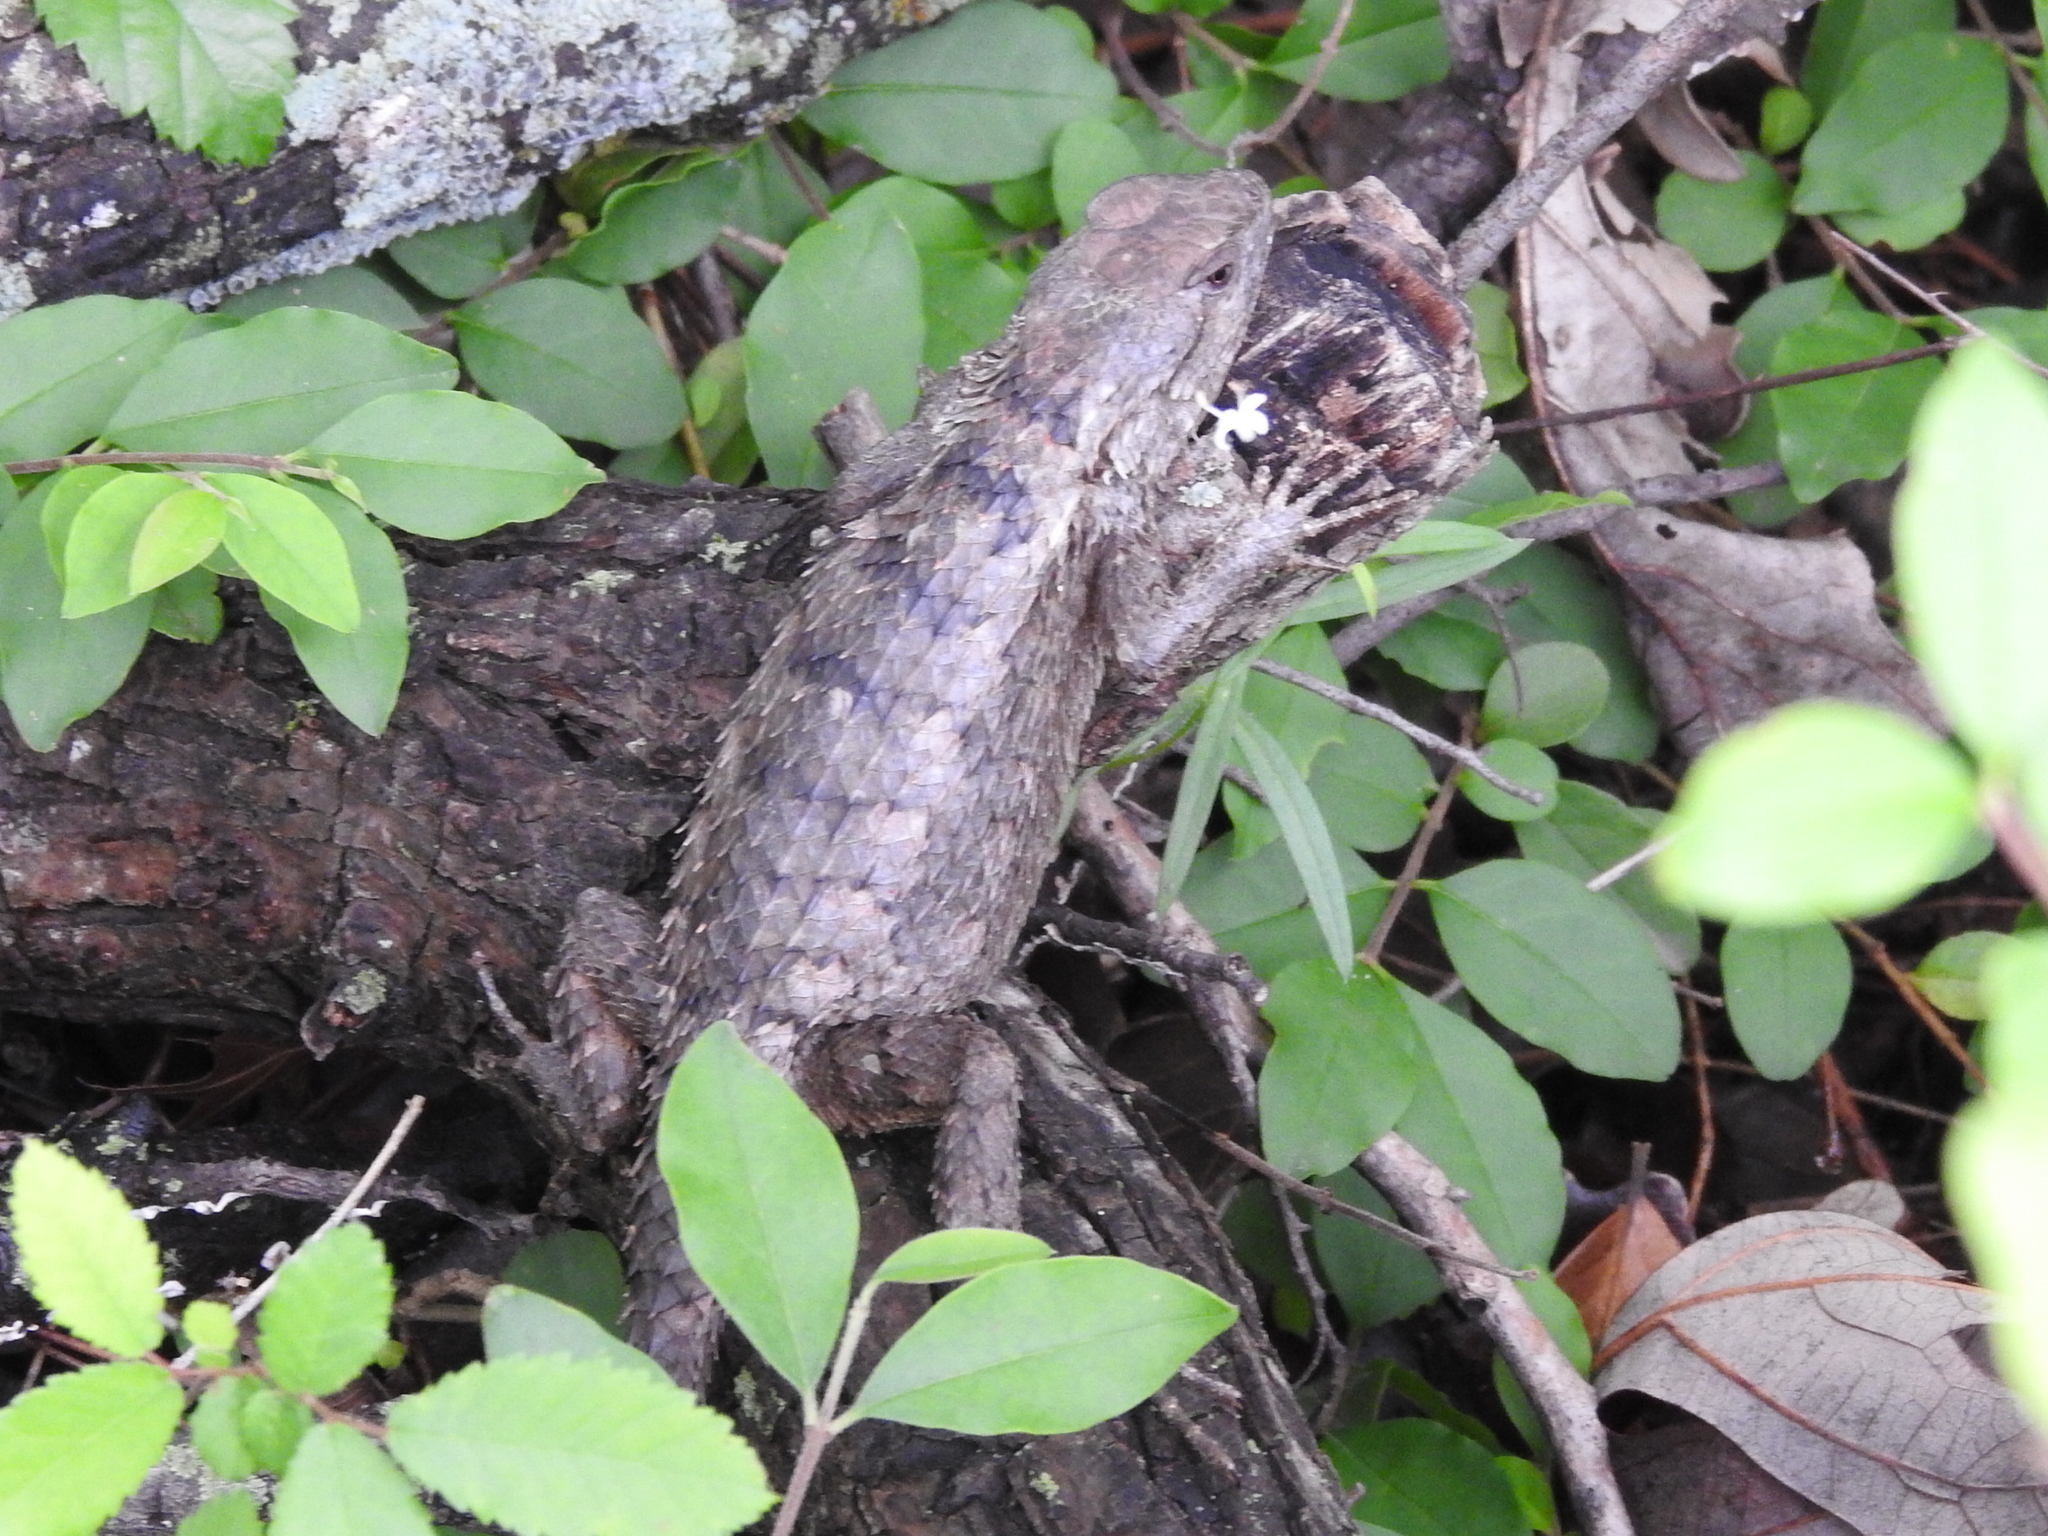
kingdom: Animalia
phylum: Chordata
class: Squamata
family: Phrynosomatidae
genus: Sceloporus
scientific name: Sceloporus olivaceus
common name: Texas spiny lizard
